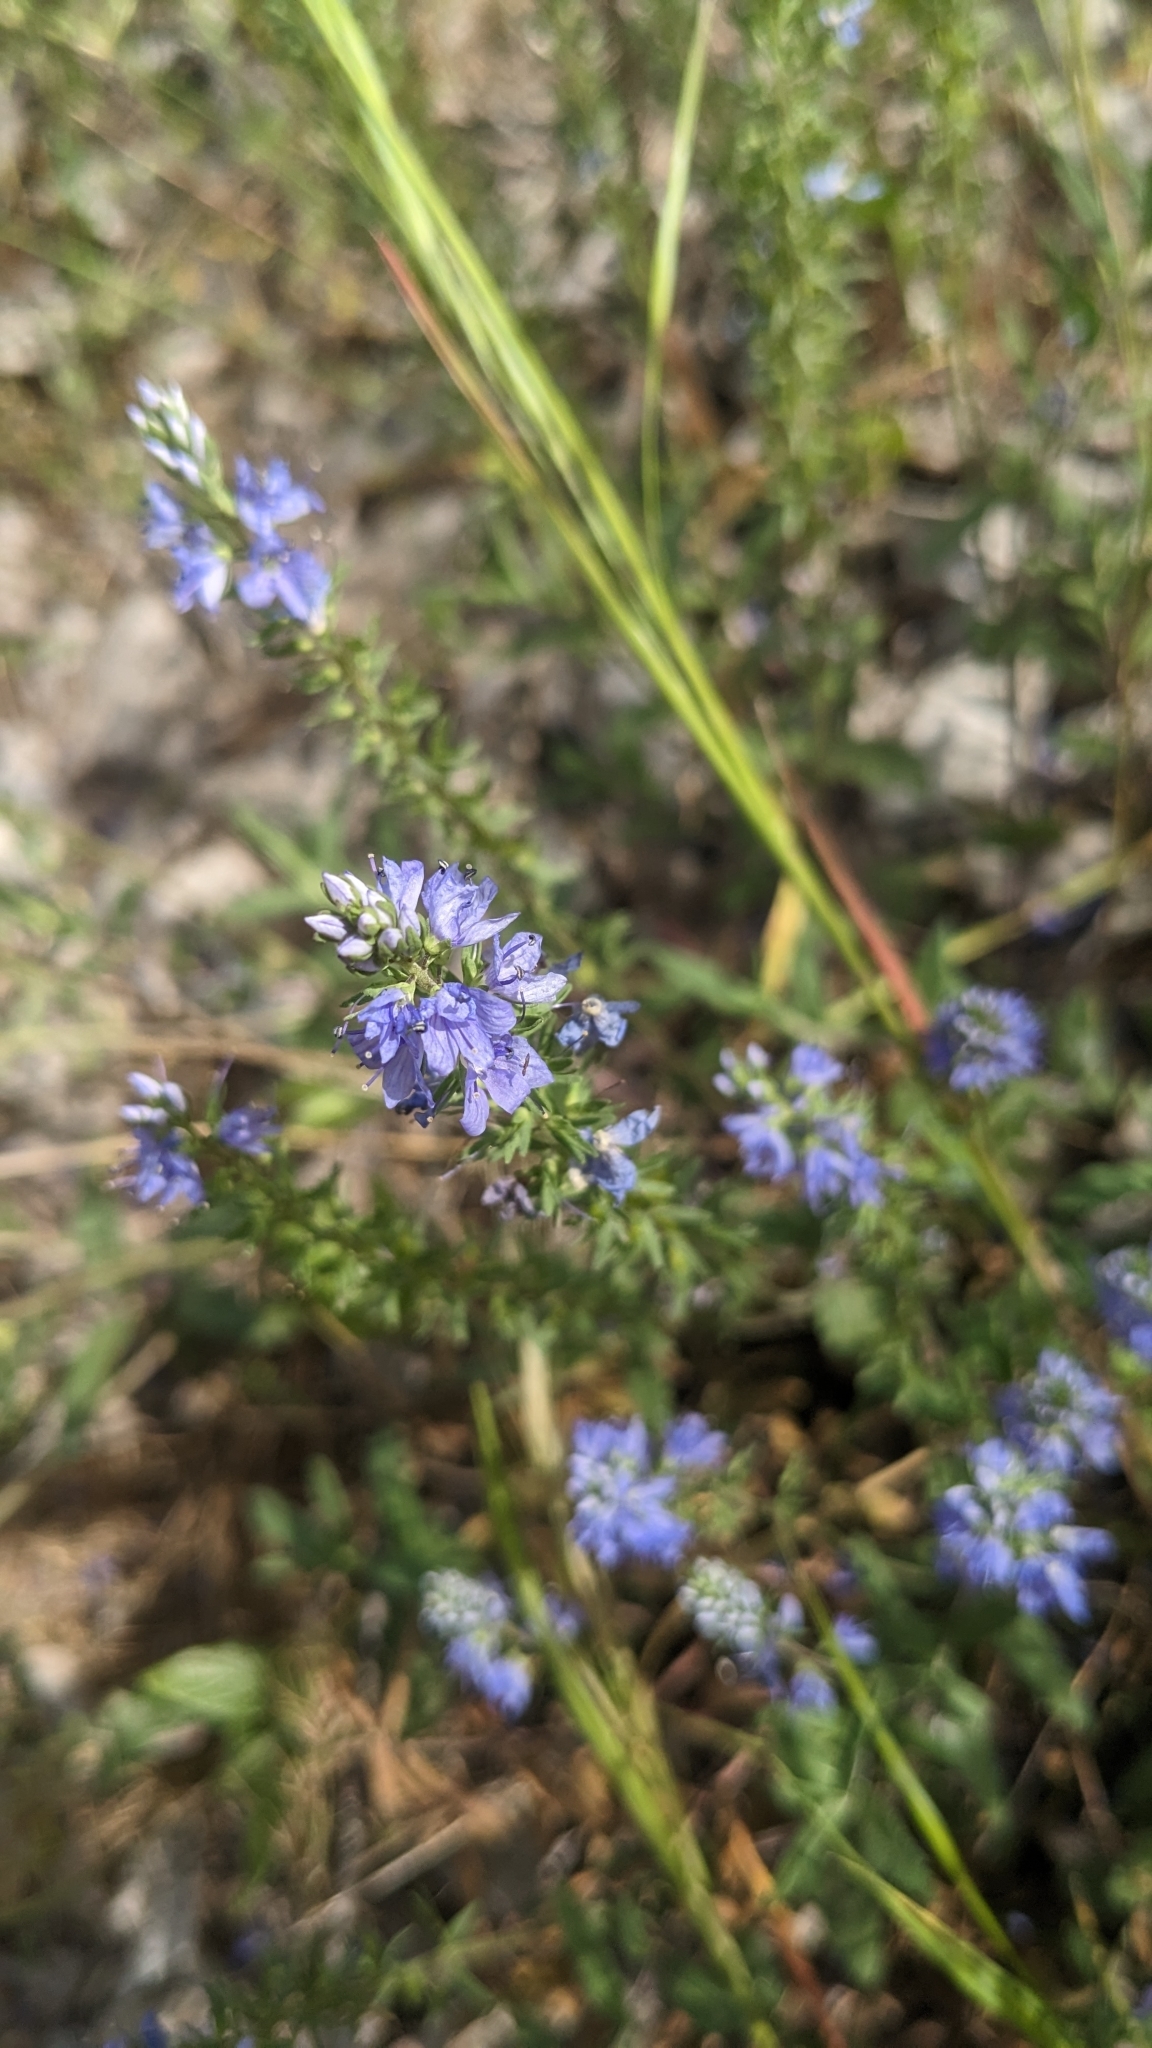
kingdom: Plantae
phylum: Tracheophyta
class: Magnoliopsida
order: Lamiales
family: Plantaginaceae
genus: Veronica
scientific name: Veronica prostrata
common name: Prostrate speedwell
